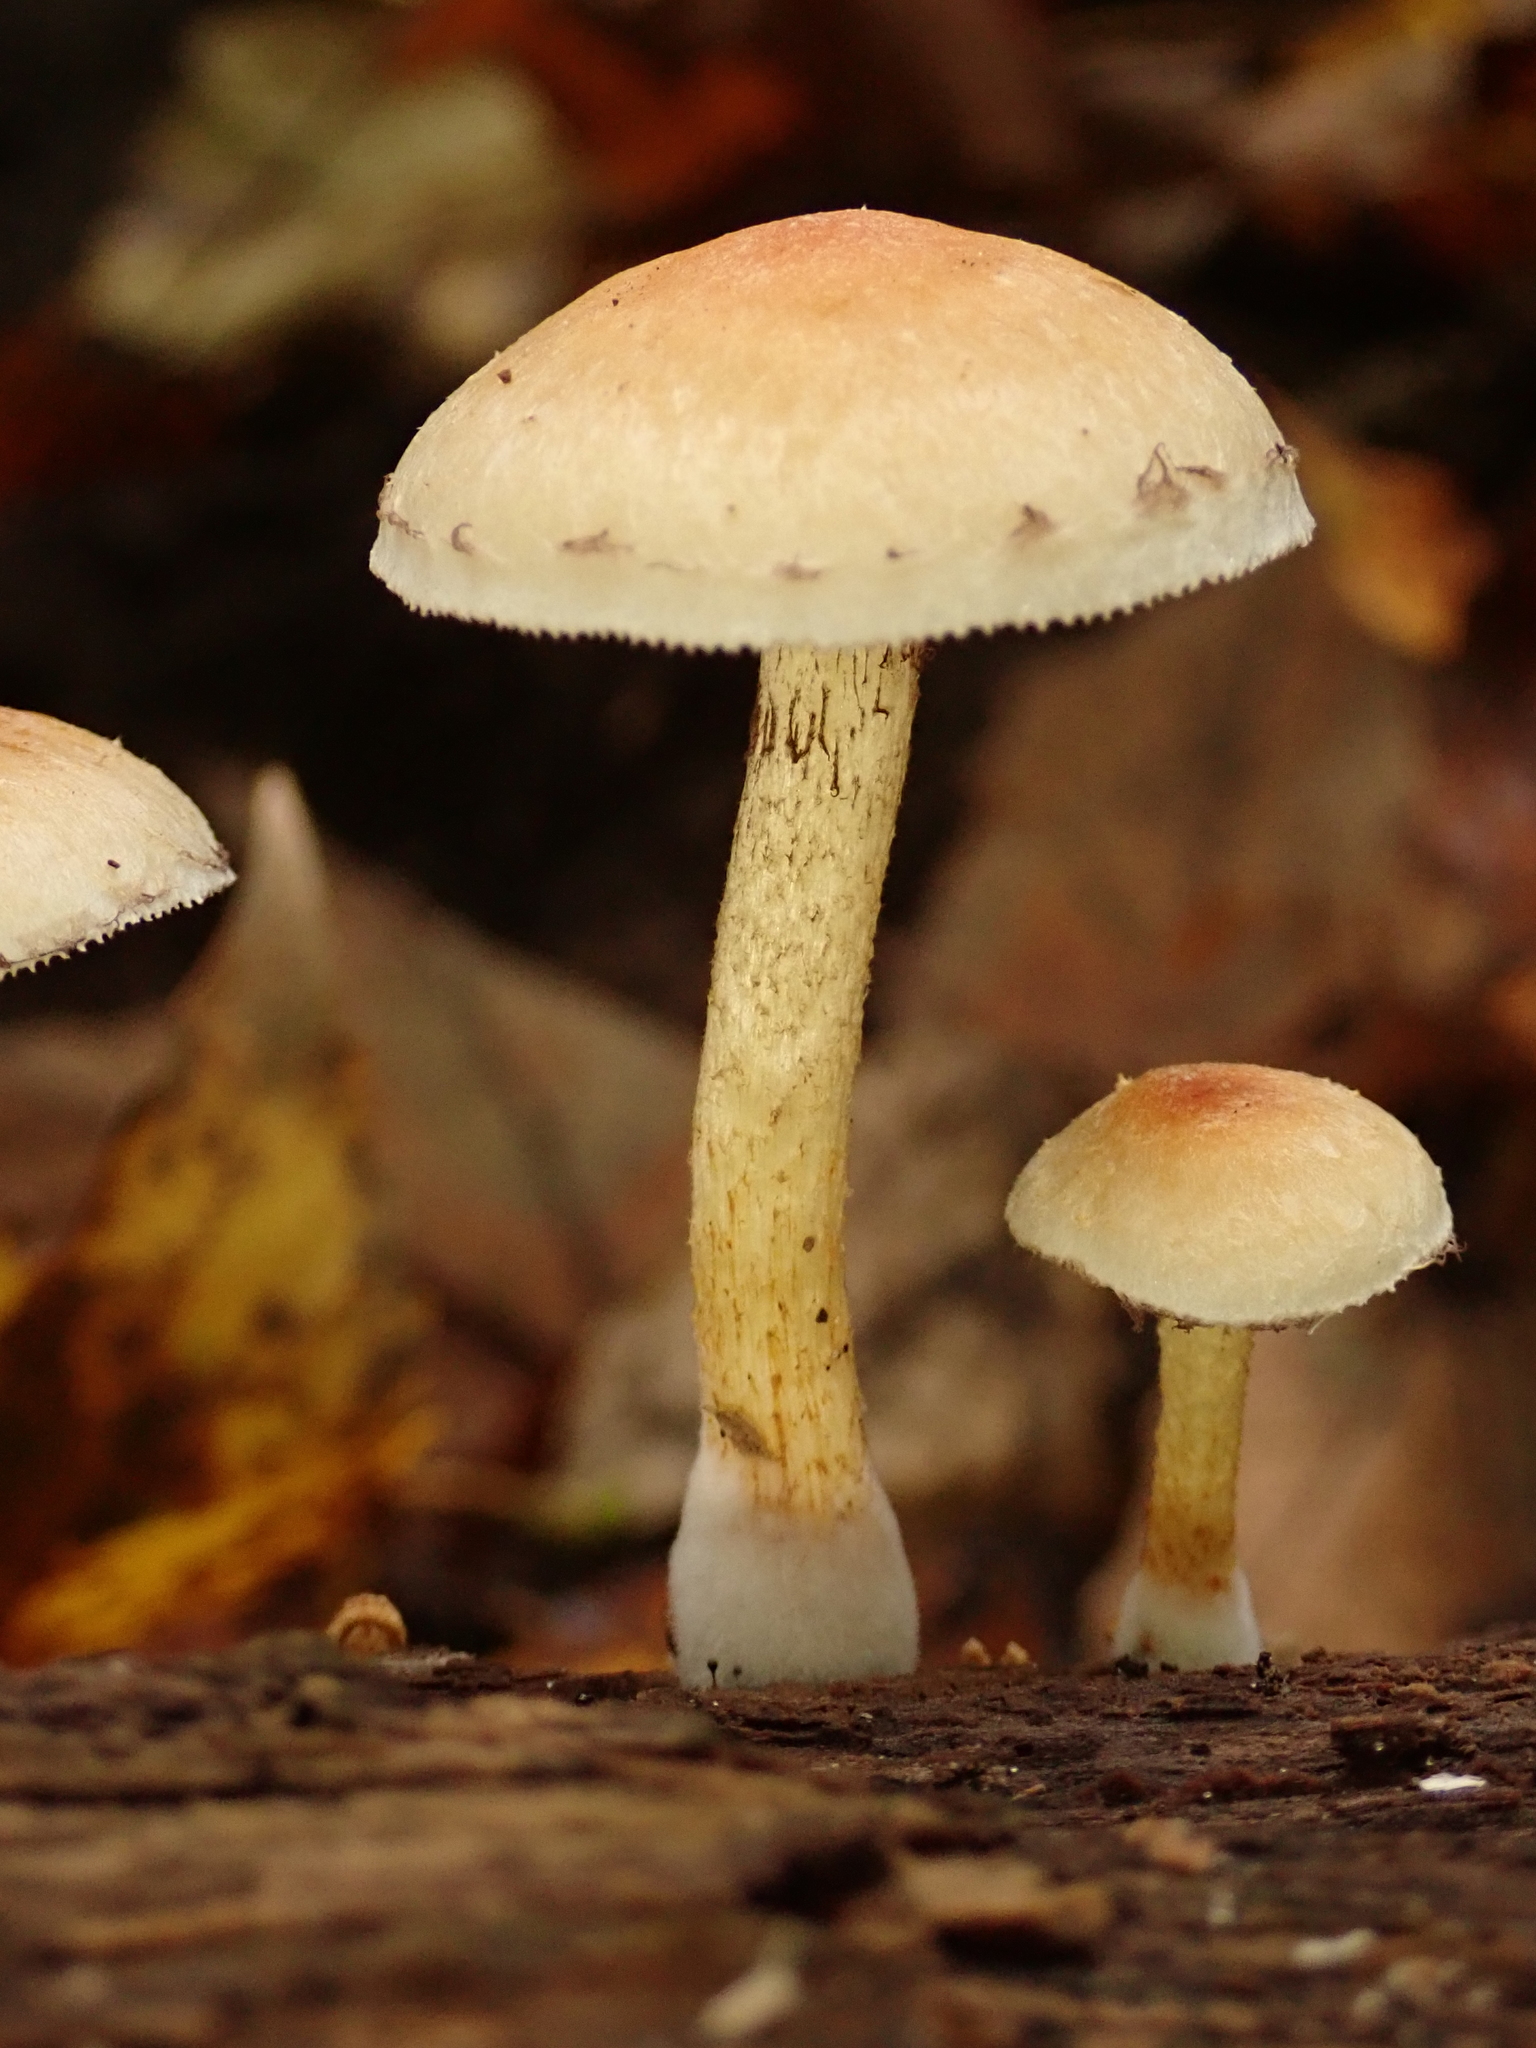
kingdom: Fungi
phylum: Basidiomycota
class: Agaricomycetes
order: Agaricales
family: Strophariaceae
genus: Hypholoma
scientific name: Hypholoma fasciculare
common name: Sulphur tuft
